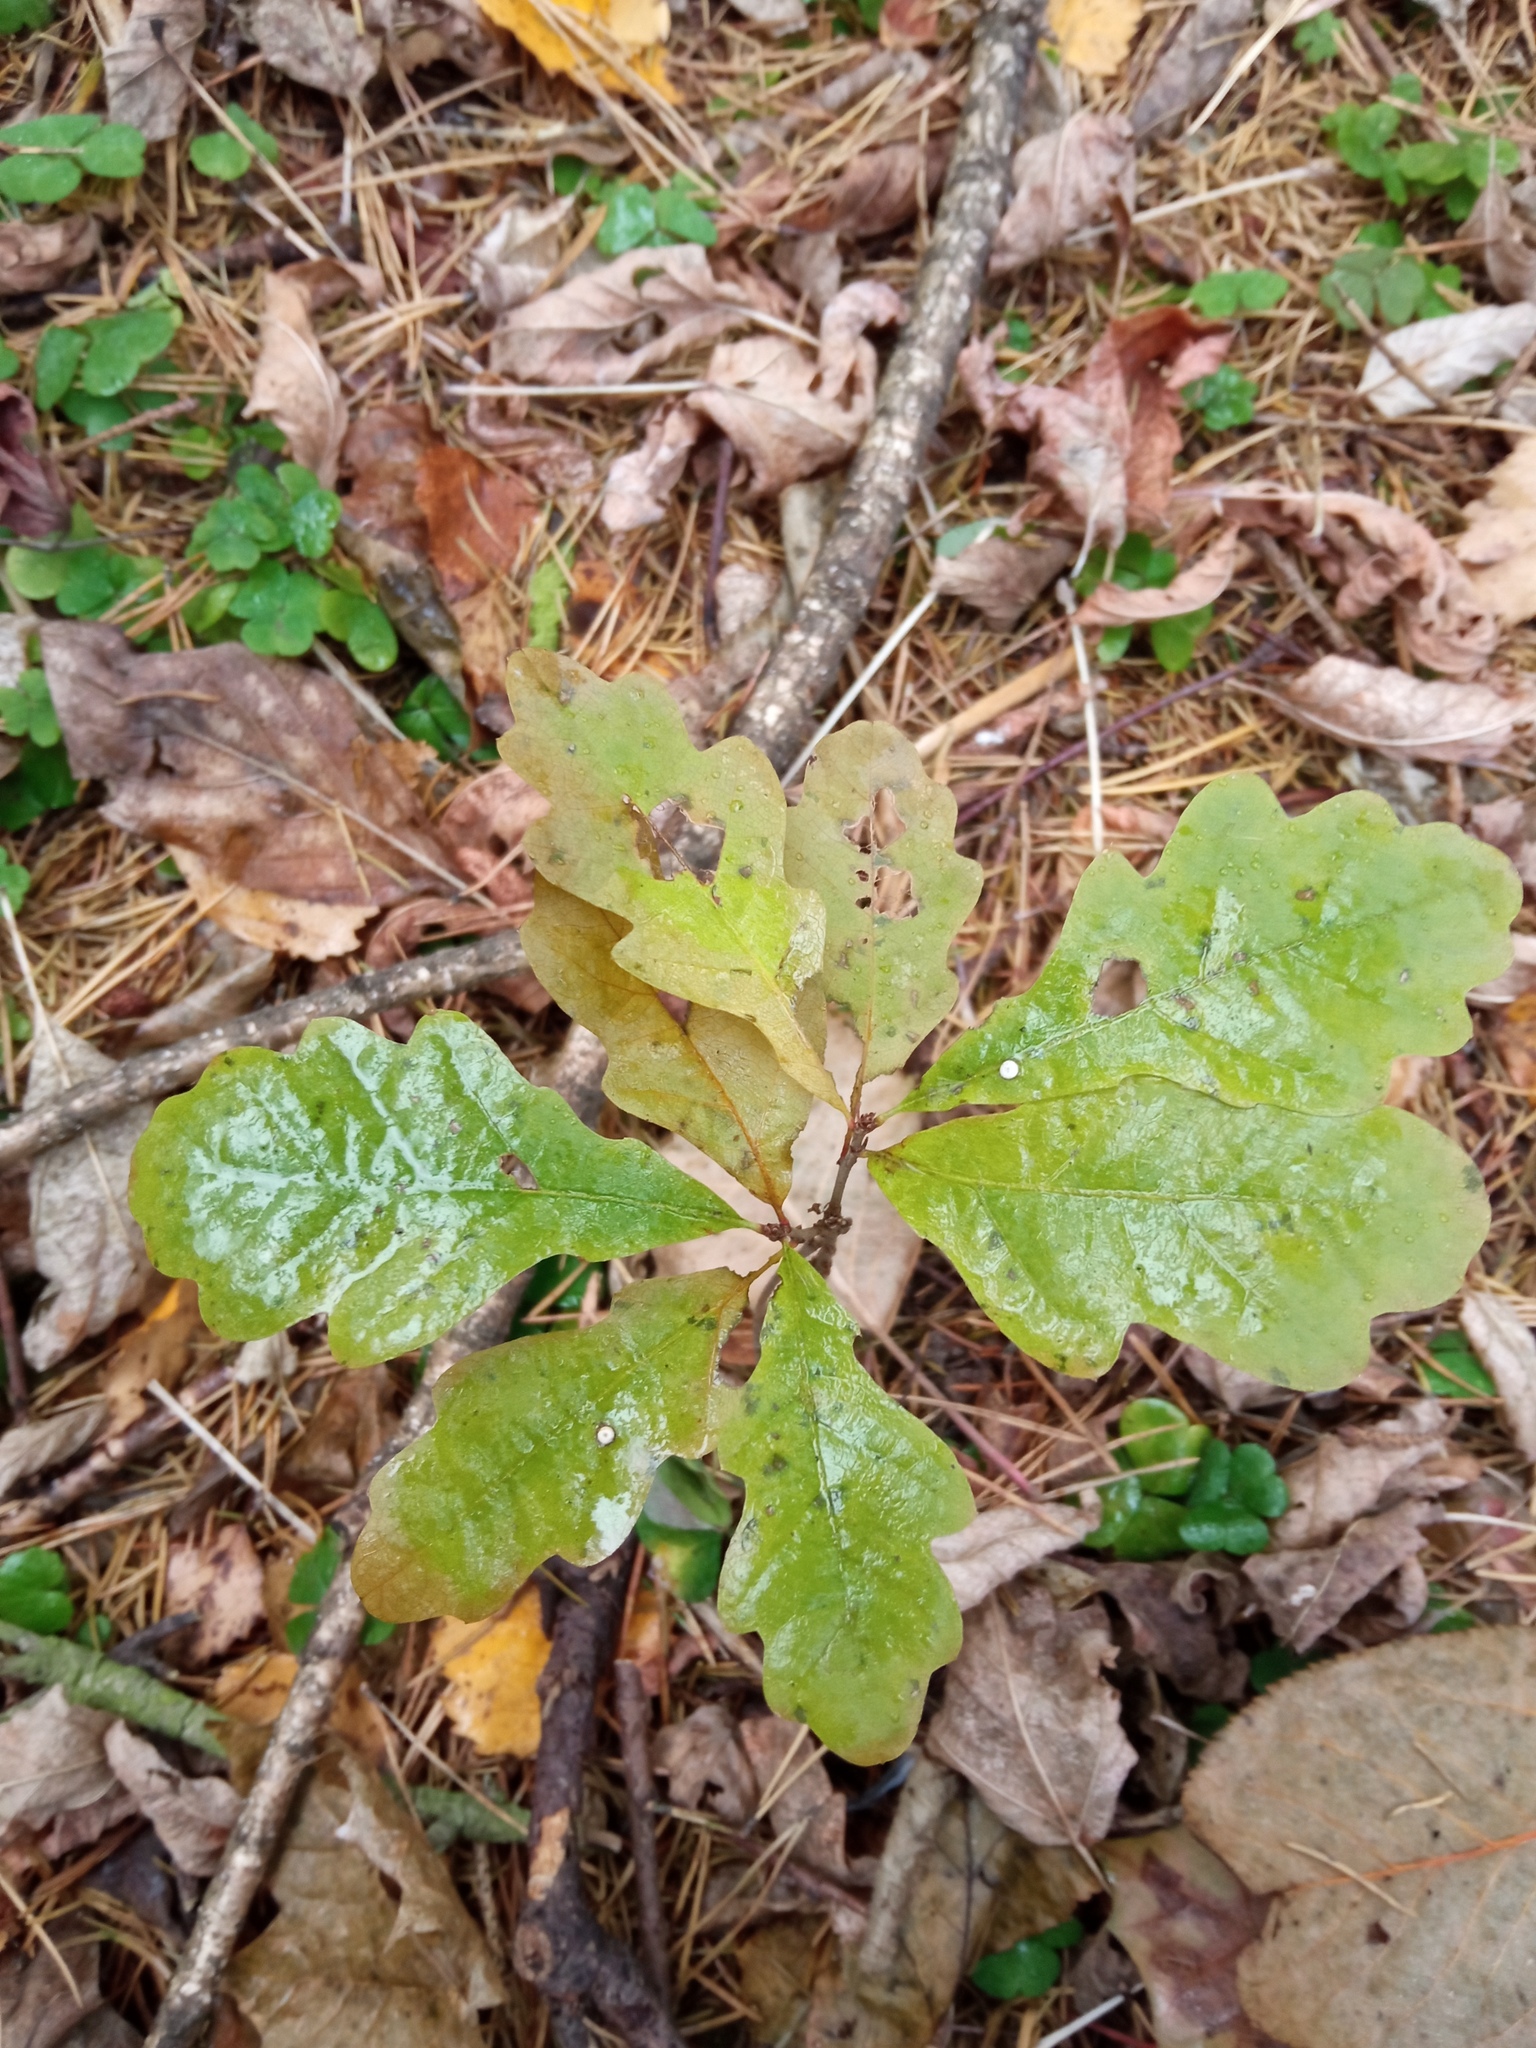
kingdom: Plantae
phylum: Tracheophyta
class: Magnoliopsida
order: Fagales
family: Fagaceae
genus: Quercus
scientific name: Quercus robur
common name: Pedunculate oak
